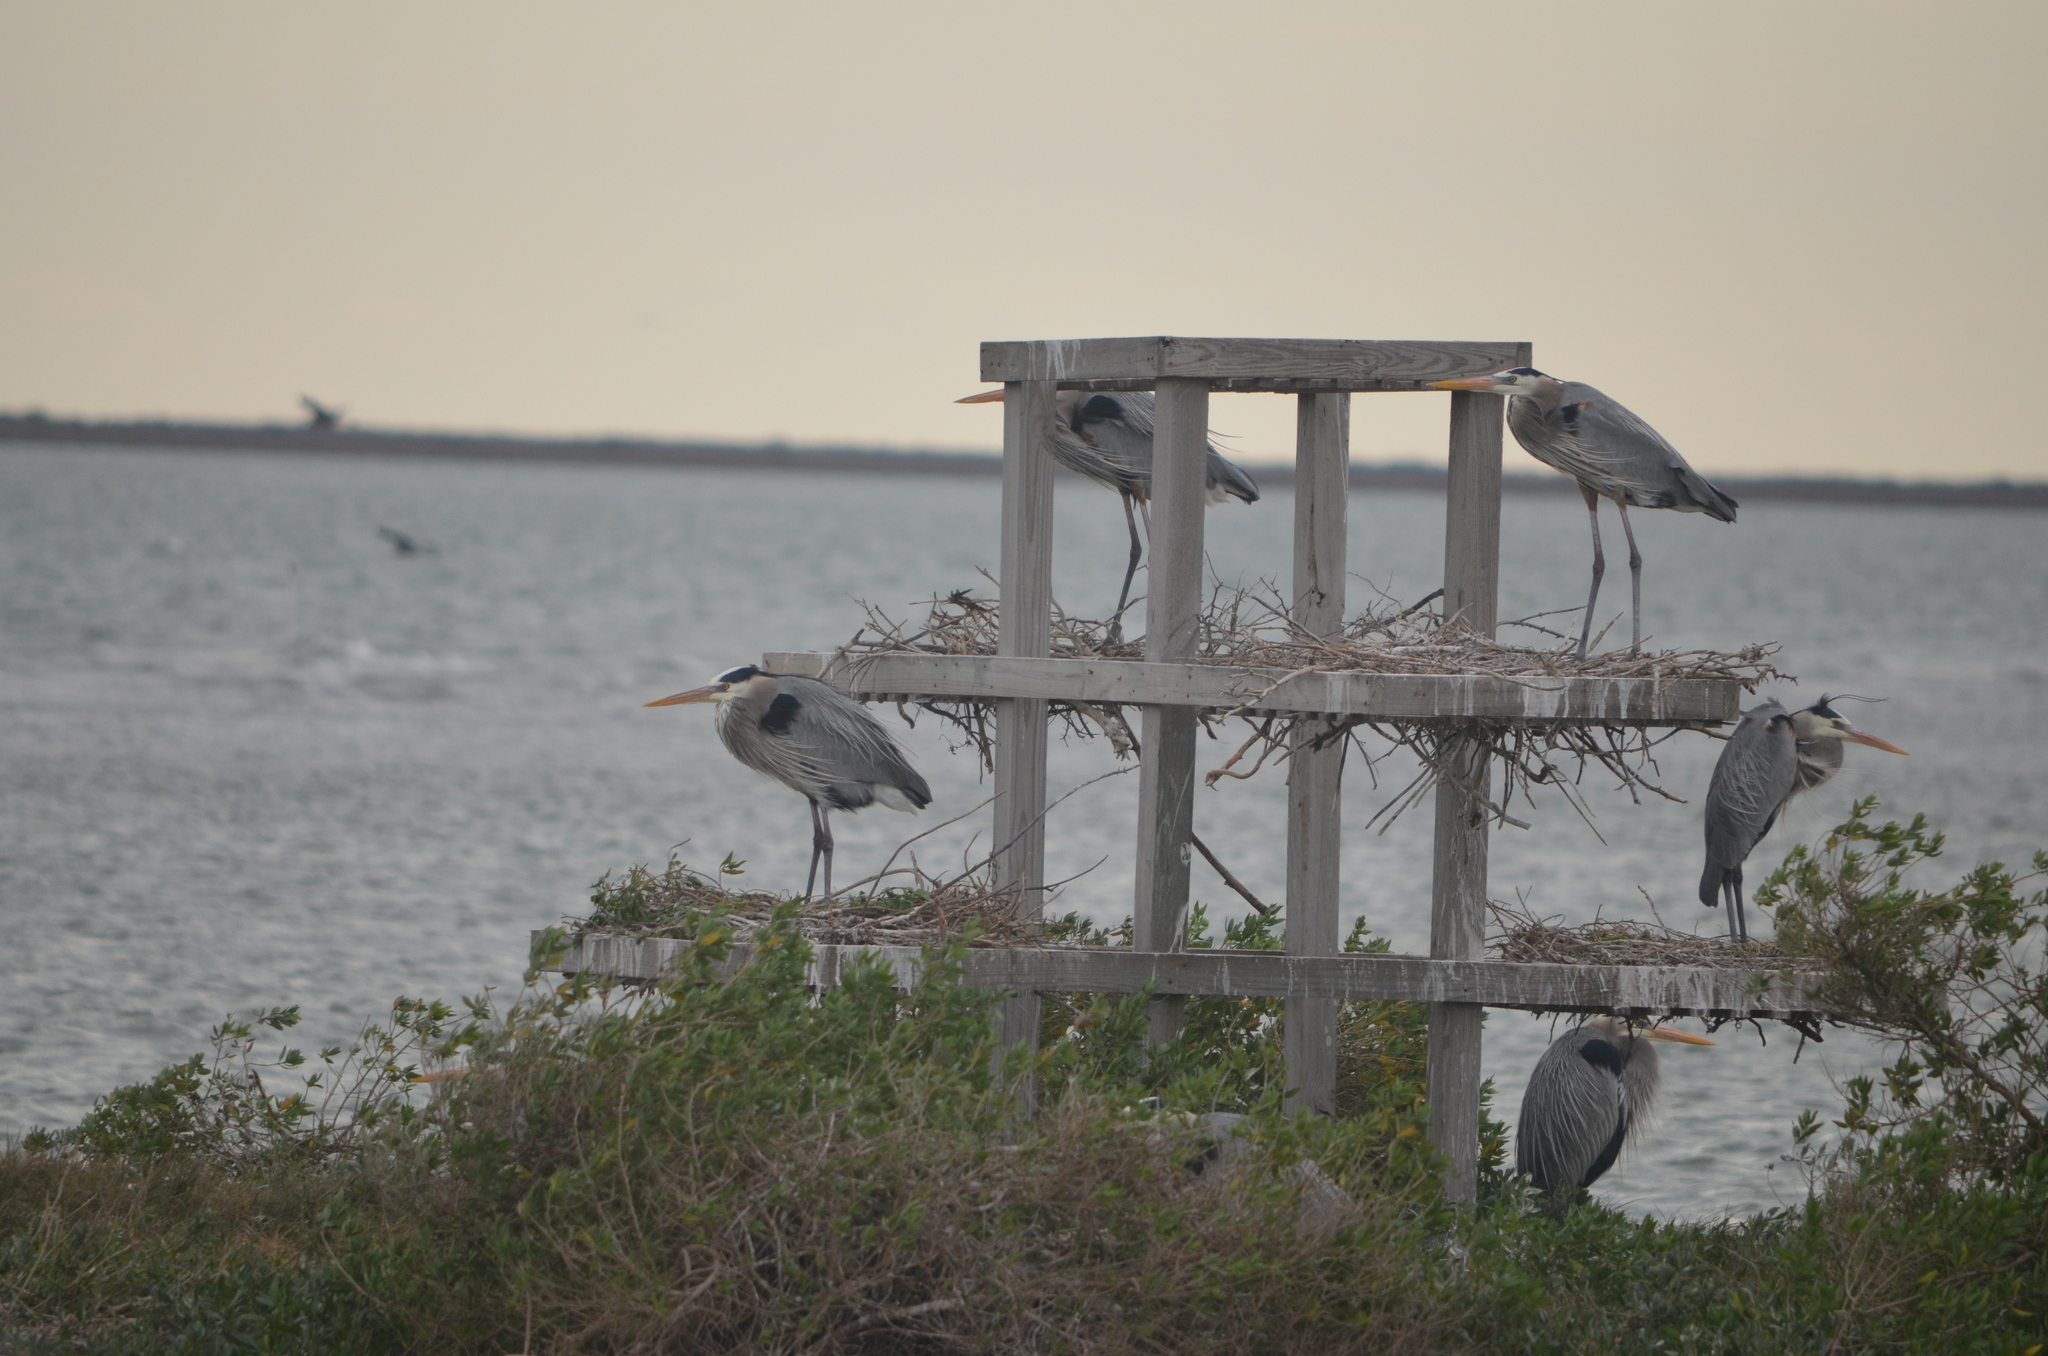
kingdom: Animalia
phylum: Chordata
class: Aves
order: Pelecaniformes
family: Ardeidae
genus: Ardea
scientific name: Ardea herodias
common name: Great blue heron
